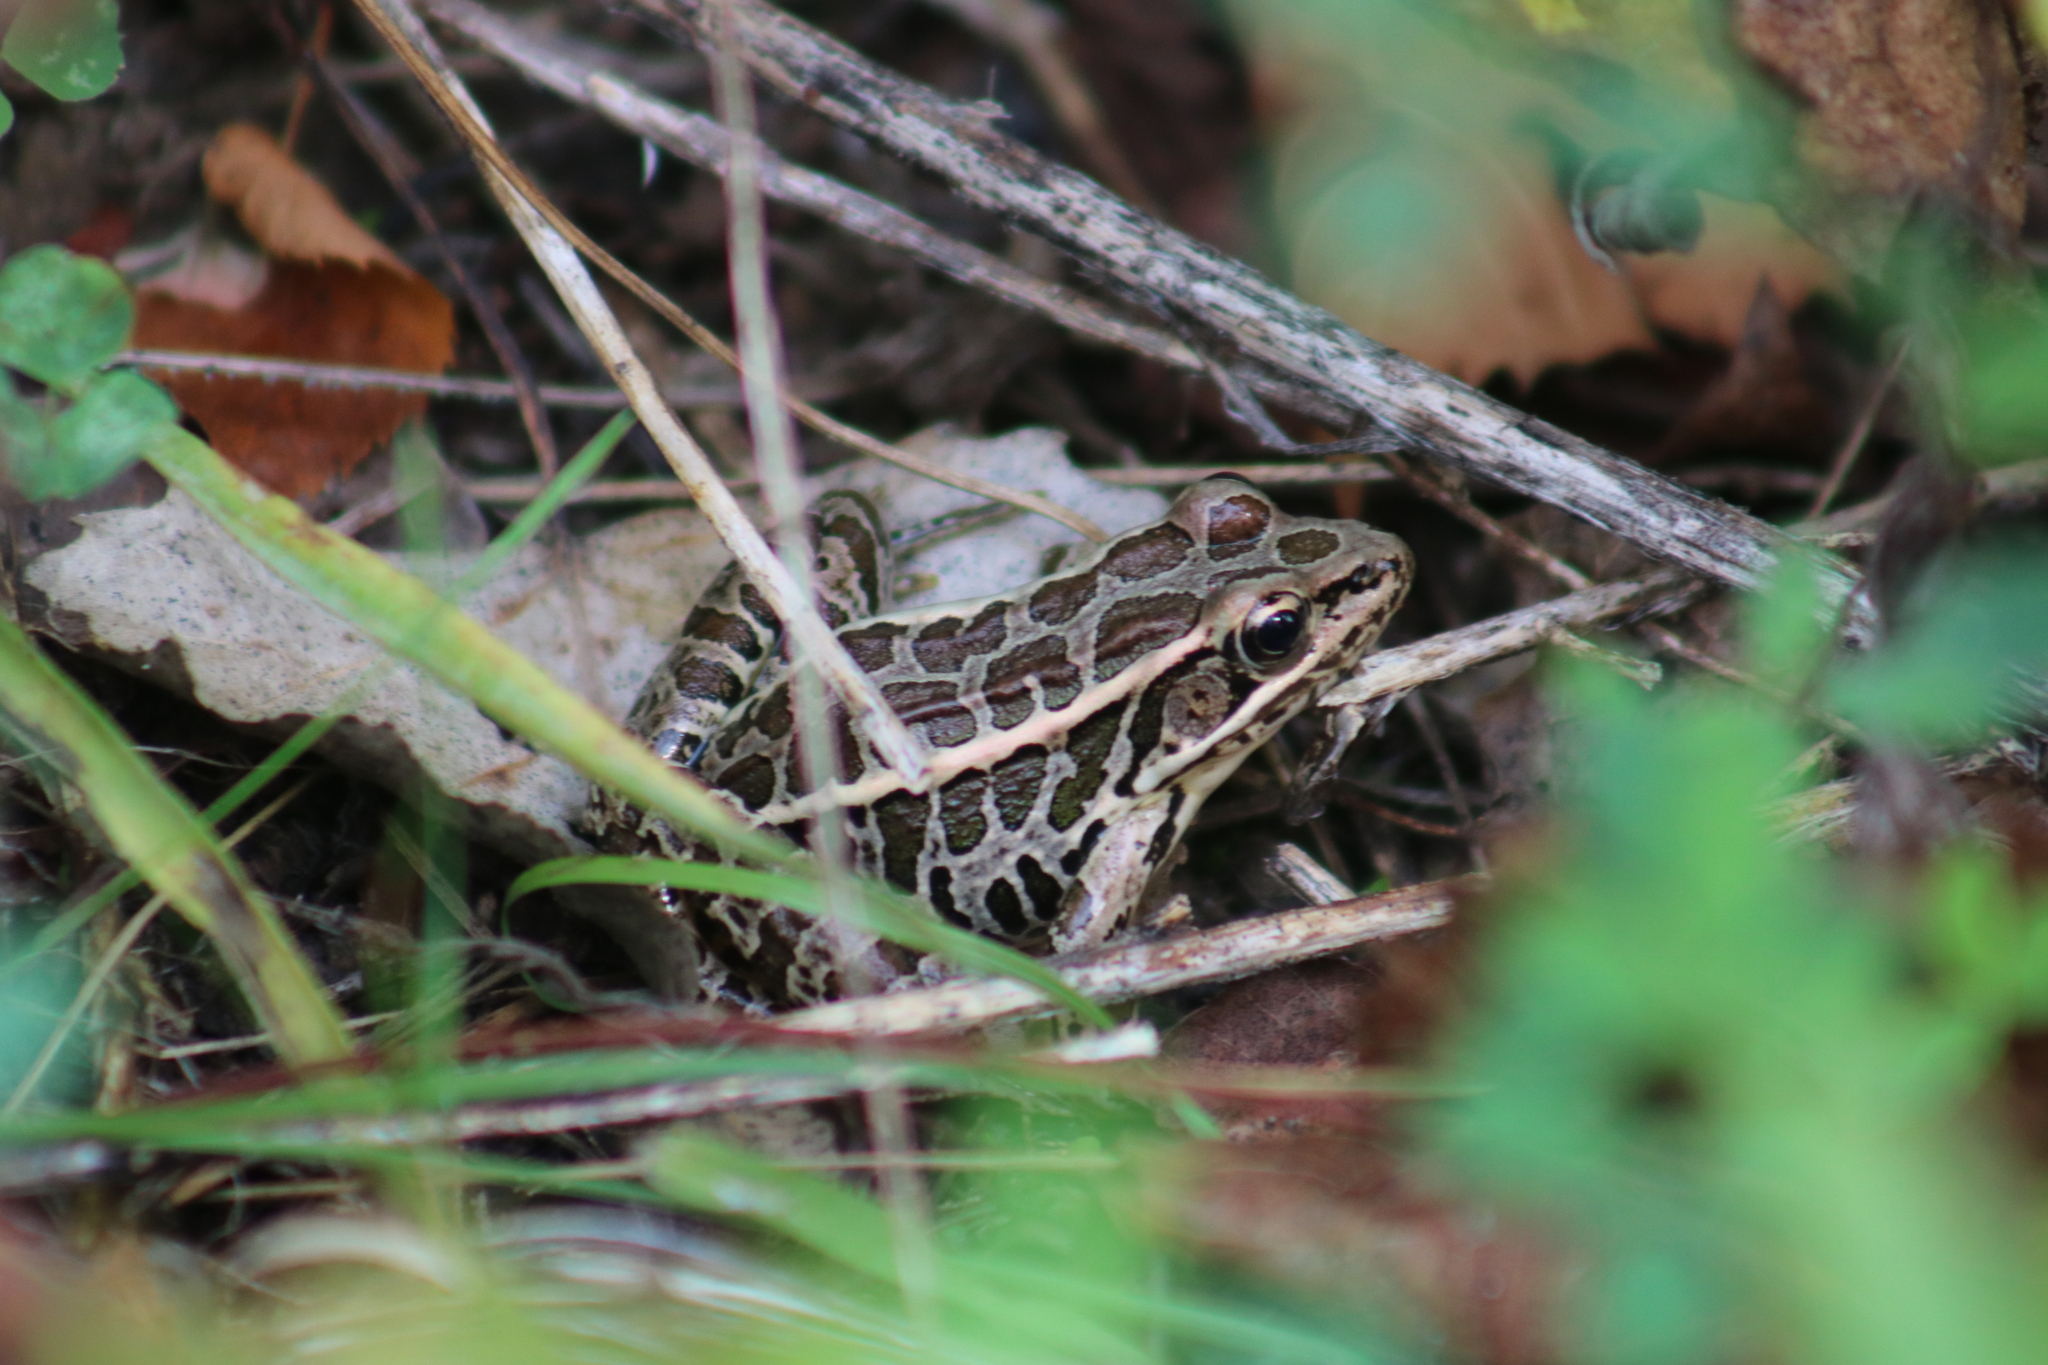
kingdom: Animalia
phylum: Chordata
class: Amphibia
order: Anura
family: Ranidae
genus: Lithobates
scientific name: Lithobates palustris
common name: Pickerel frog
